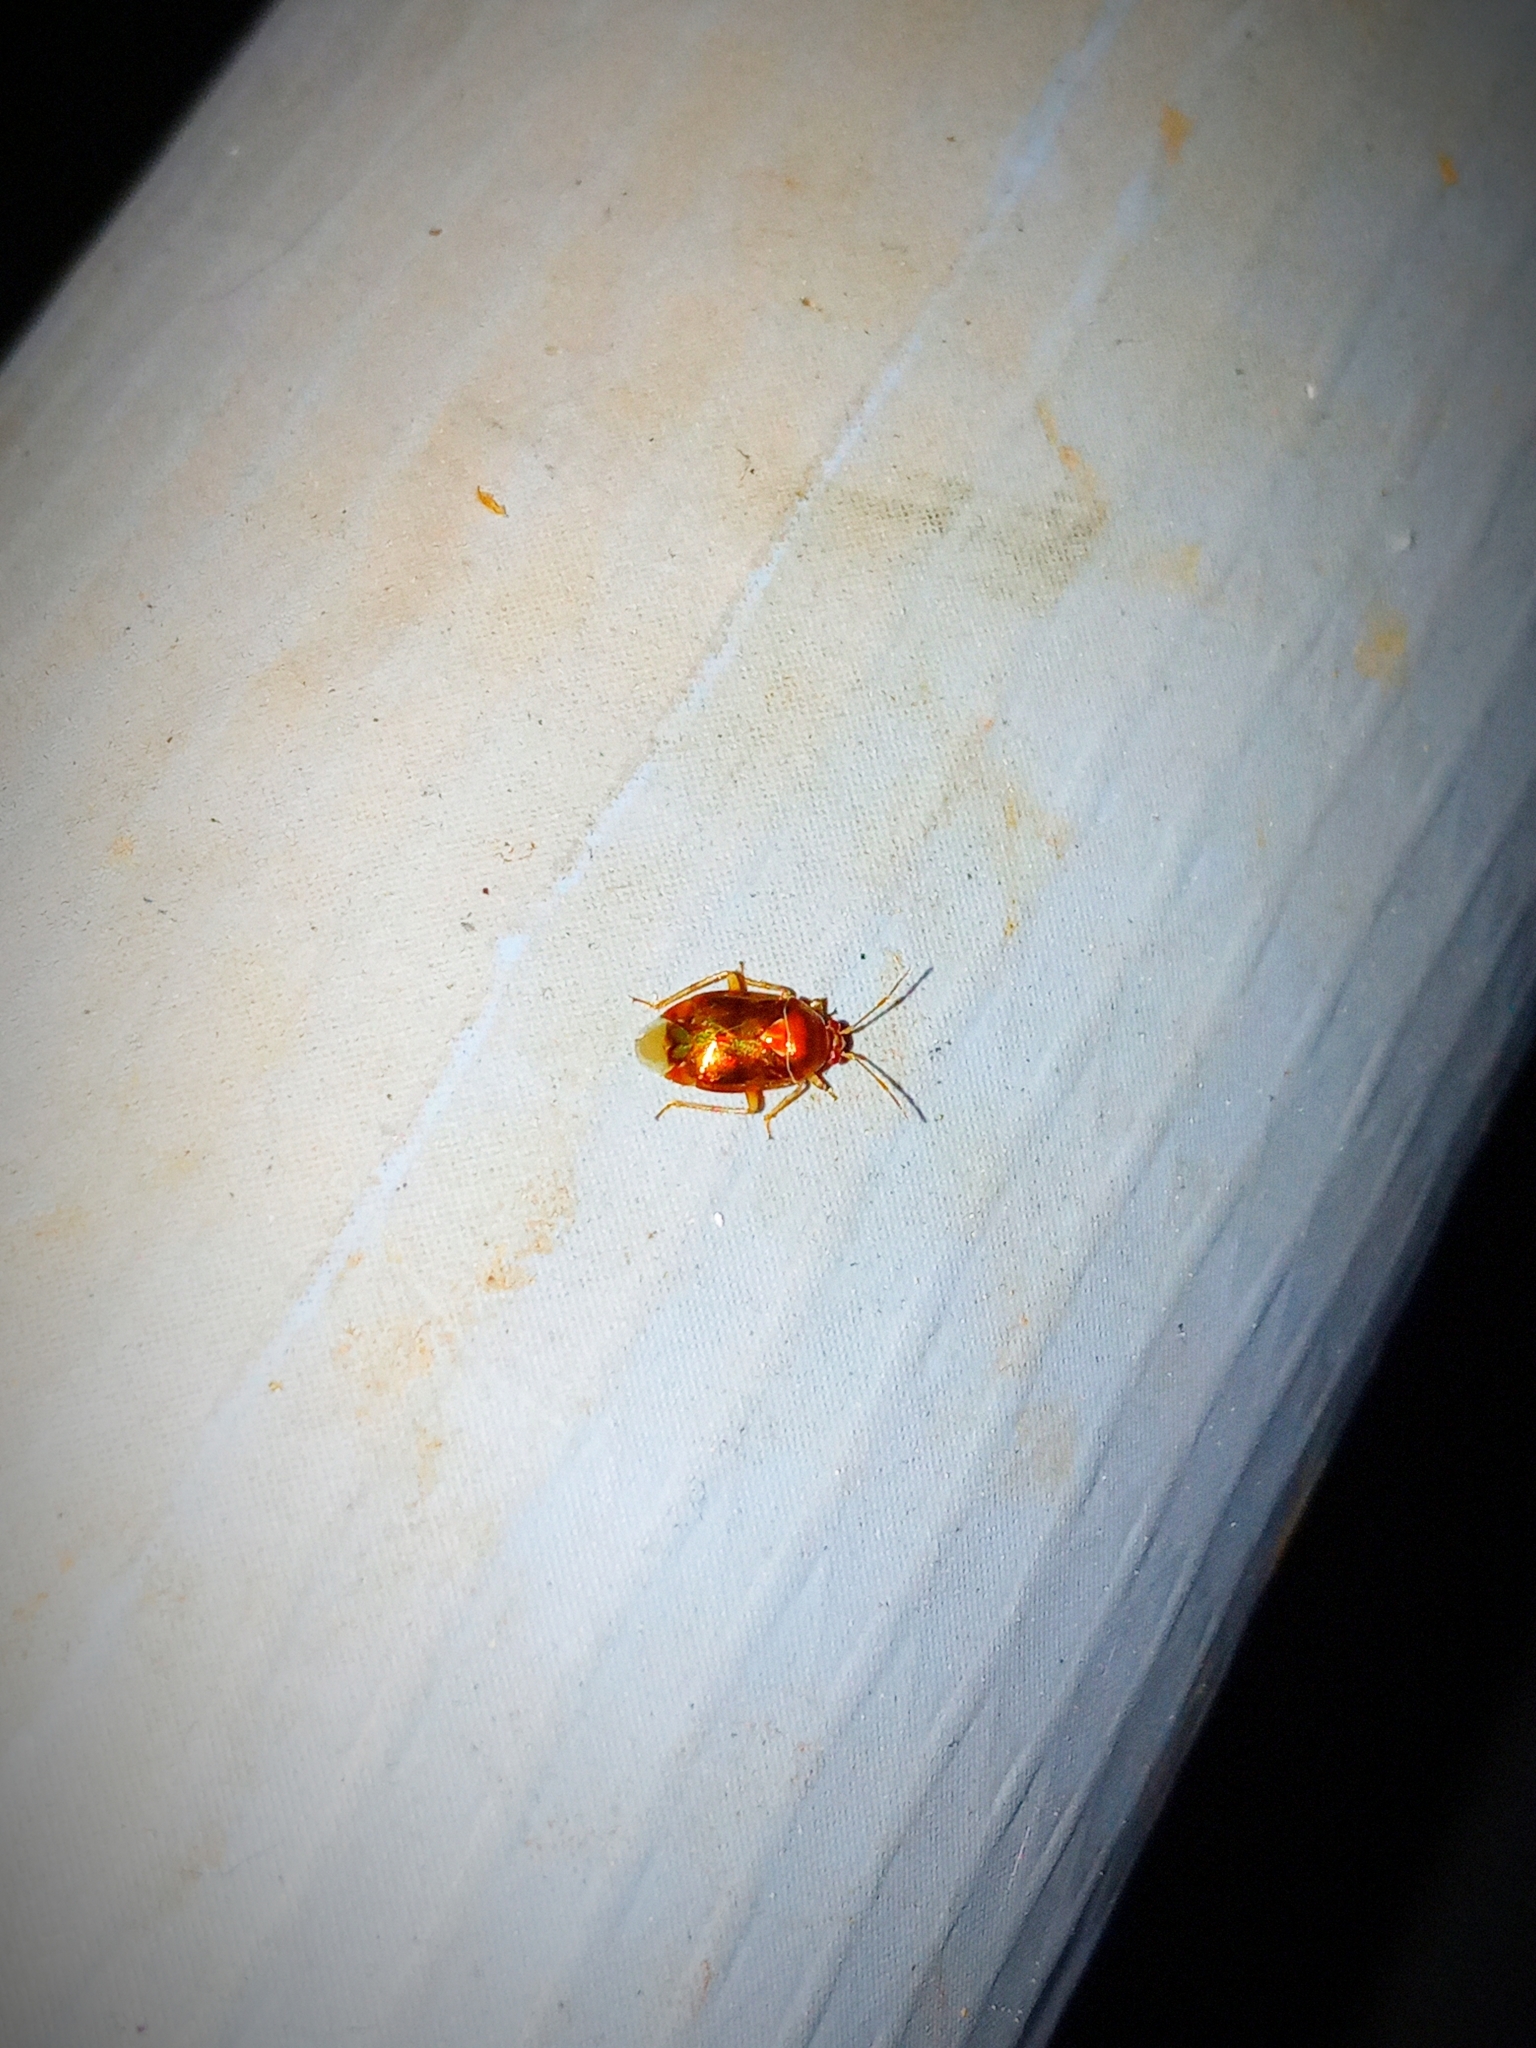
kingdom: Animalia
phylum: Arthropoda
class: Insecta
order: Hemiptera
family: Miridae
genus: Deraeocoris
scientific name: Deraeocoris lutescens
